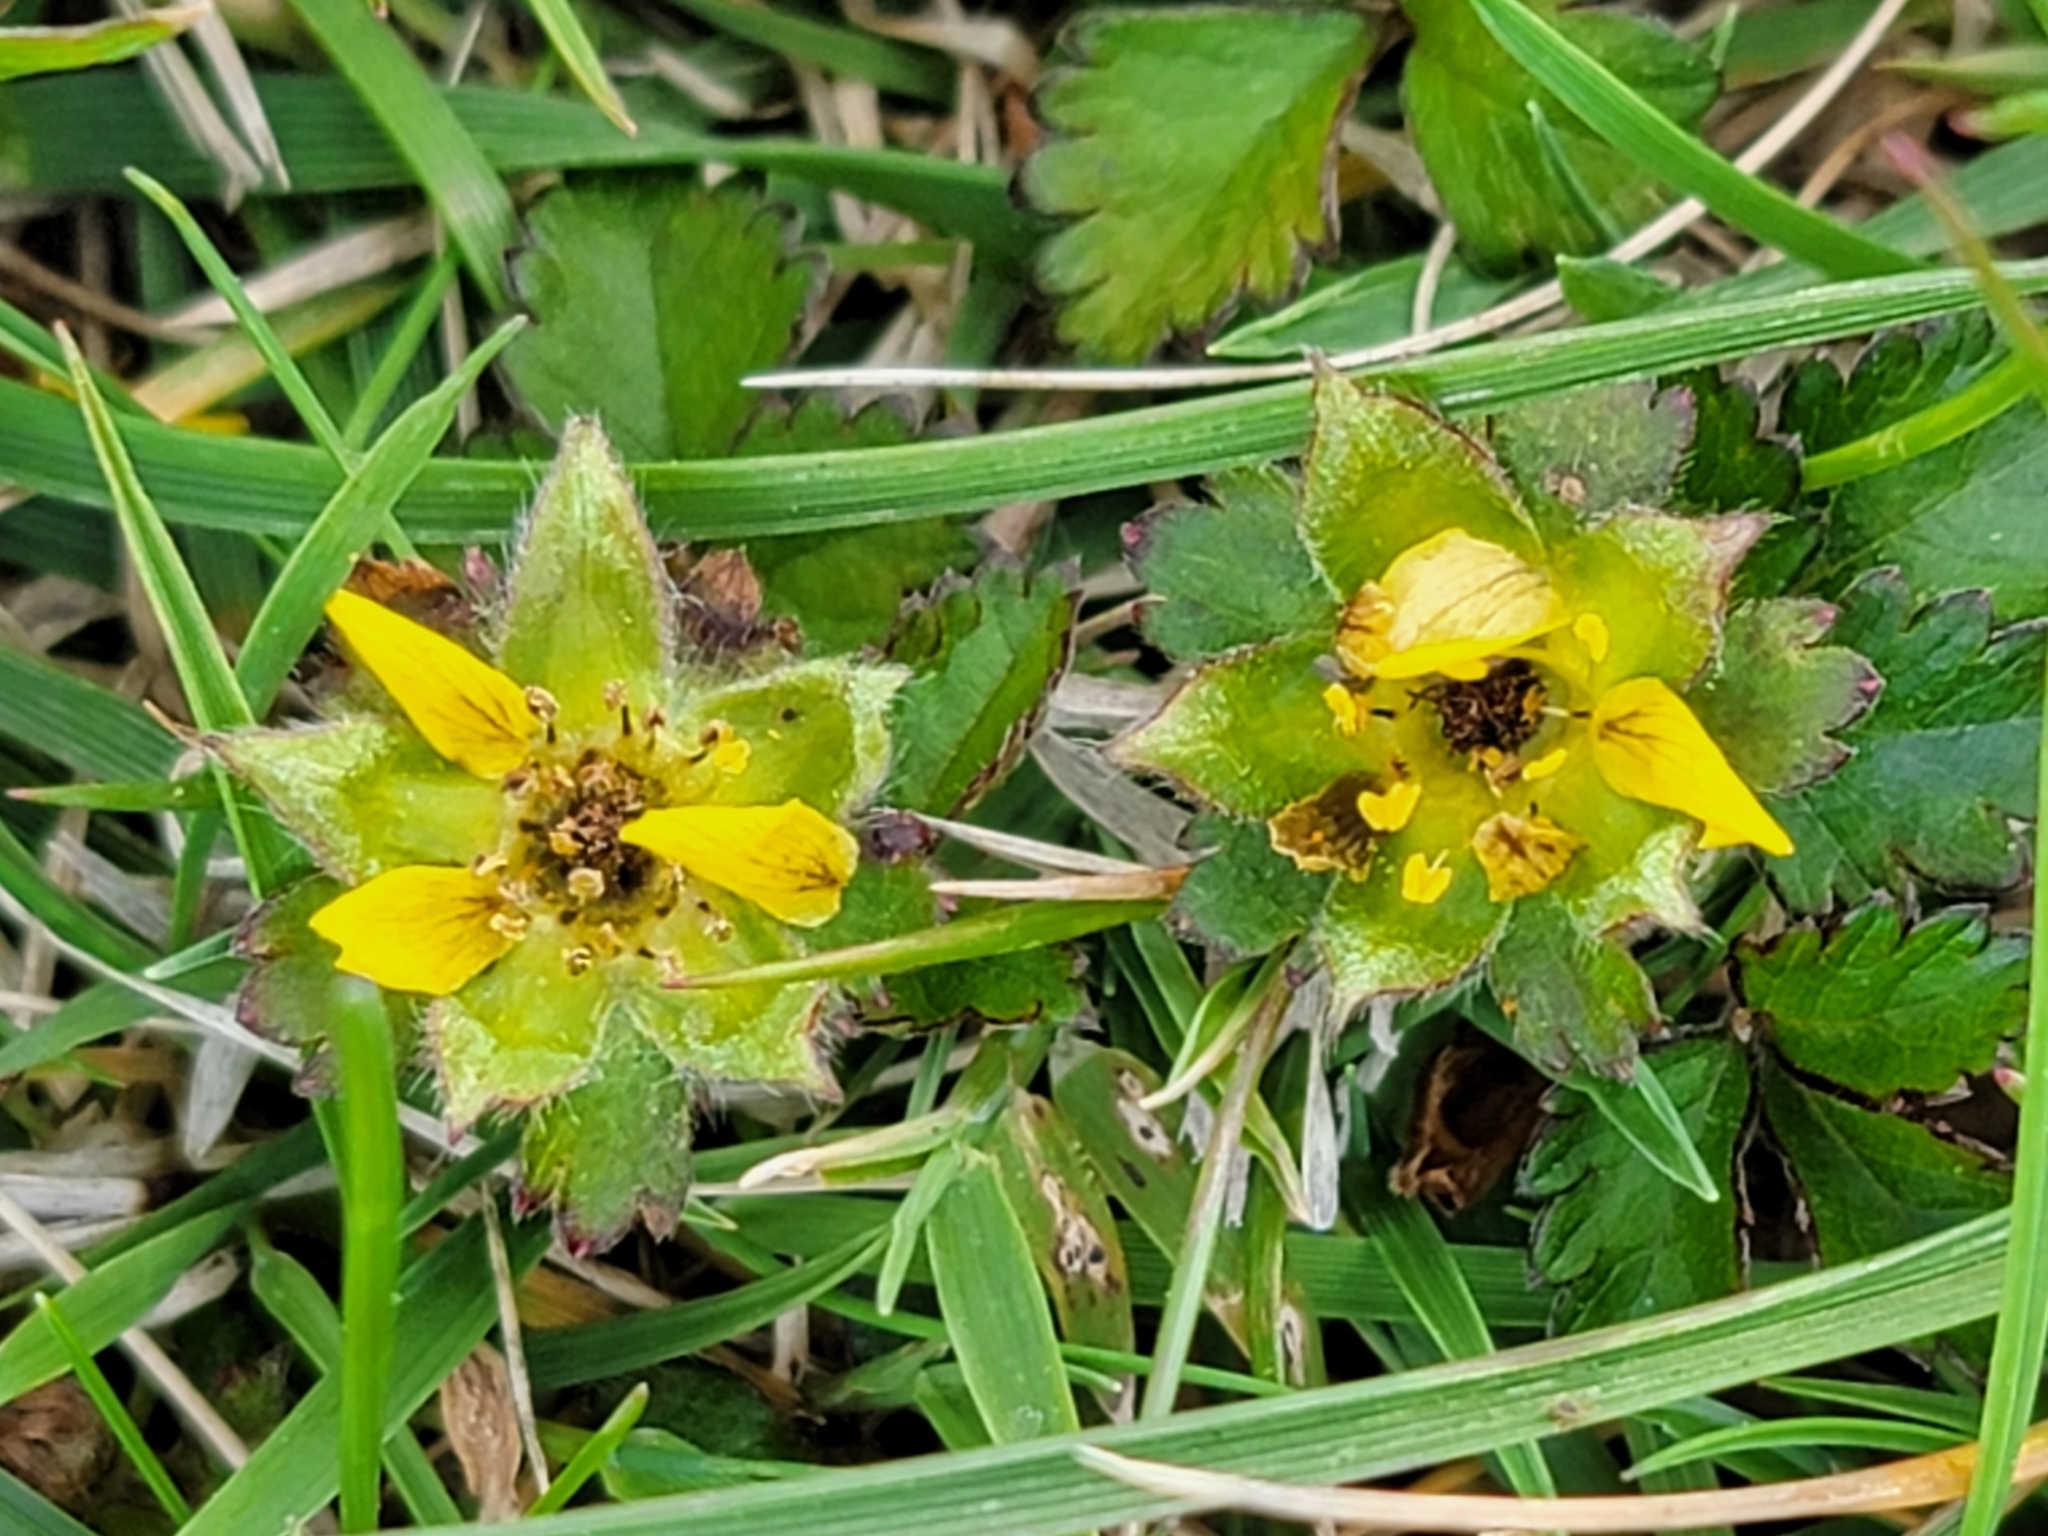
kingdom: Plantae
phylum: Tracheophyta
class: Magnoliopsida
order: Rosales
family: Rosaceae
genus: Potentilla
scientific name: Potentilla indica
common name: Yellow-flowered strawberry
